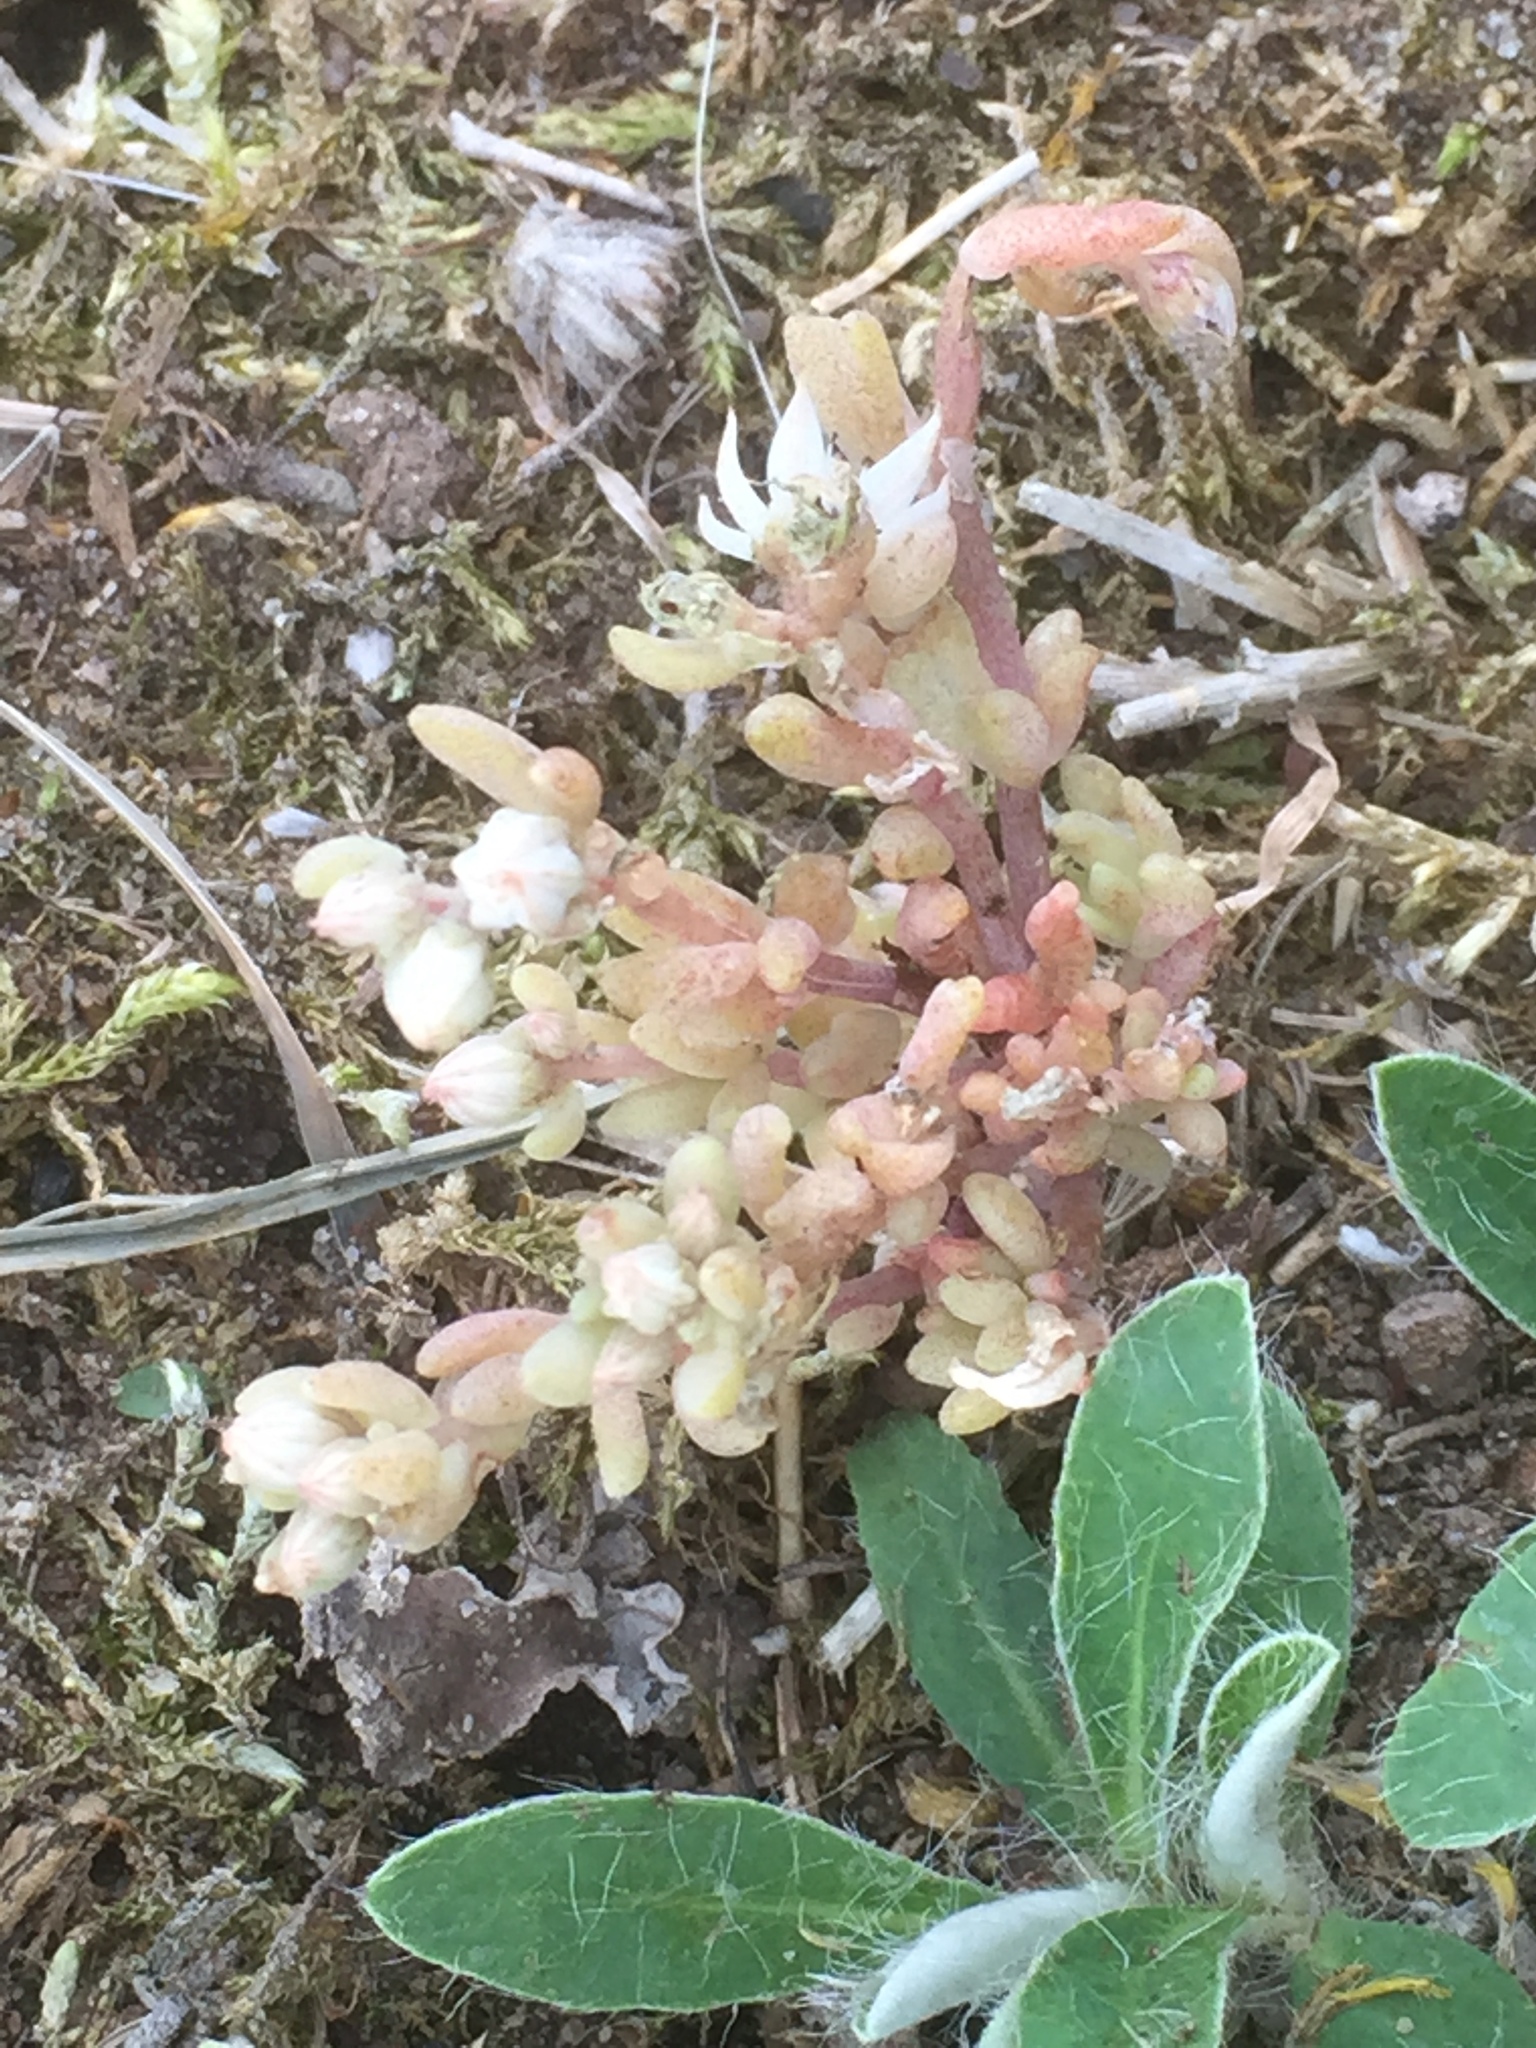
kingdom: Plantae
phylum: Tracheophyta
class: Magnoliopsida
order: Saxifragales
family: Crassulaceae
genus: Sedum
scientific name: Sedum hispanicum
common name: Spanish stonecrop
